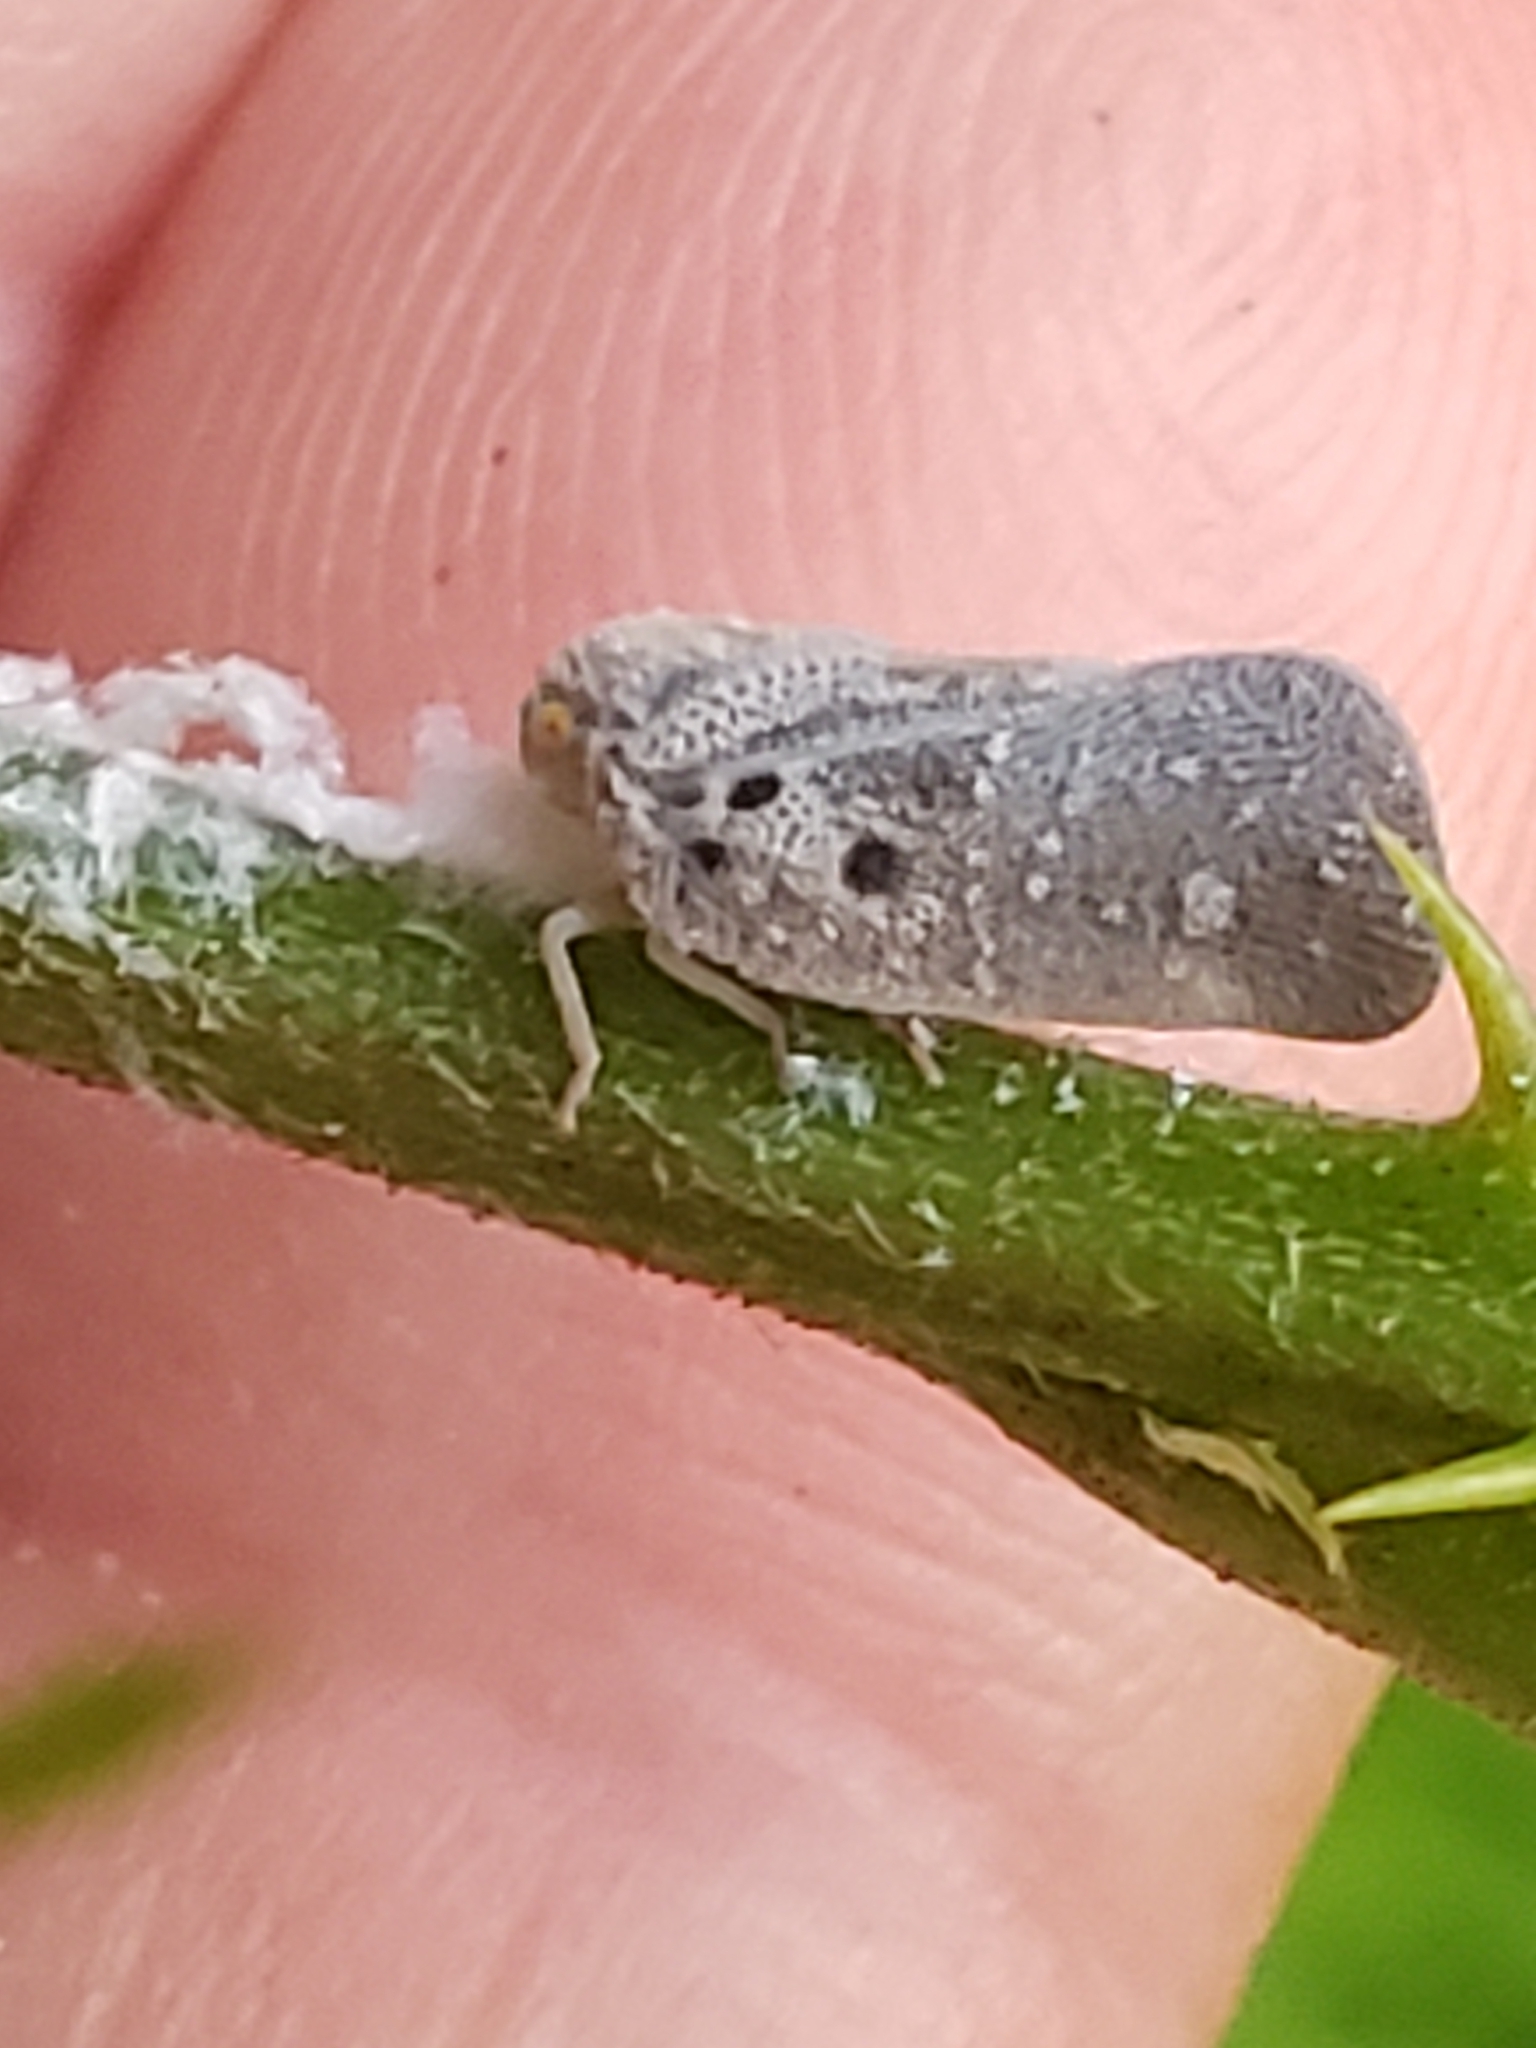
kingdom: Animalia
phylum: Arthropoda
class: Insecta
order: Hemiptera
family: Flatidae
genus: Metcalfa
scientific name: Metcalfa pruinosa
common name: Citrus flatid planthopper
